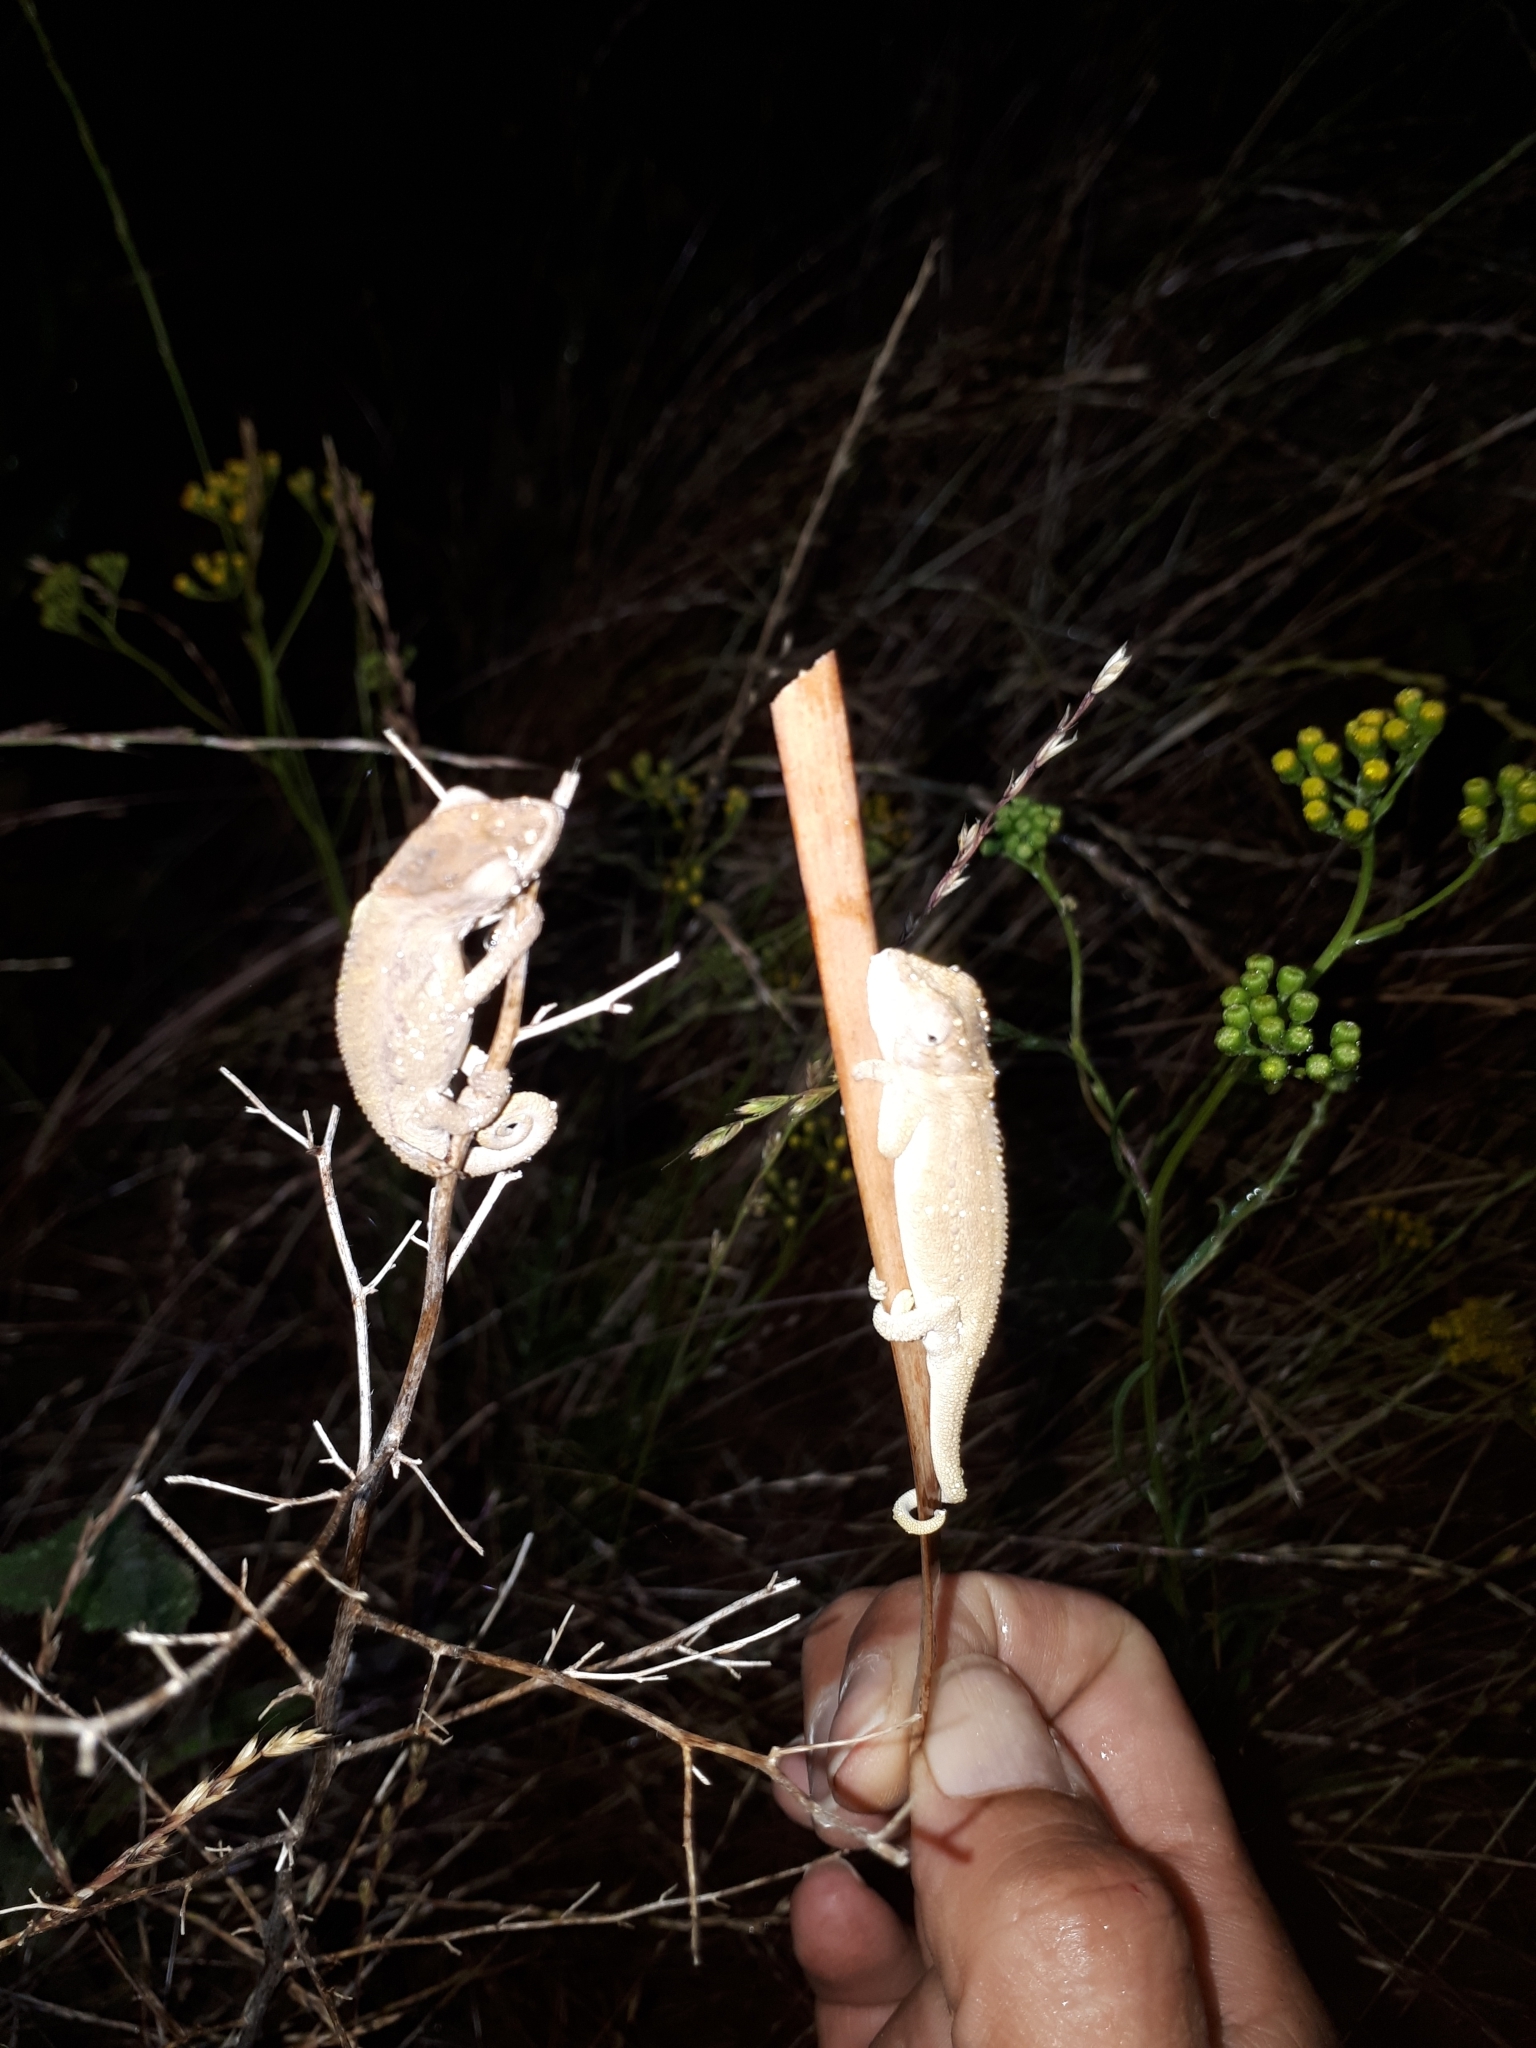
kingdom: Animalia
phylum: Chordata
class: Squamata
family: Chamaeleonidae
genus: Bradypodion
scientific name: Bradypodion pumilum
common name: Cape dwarf chameleon
